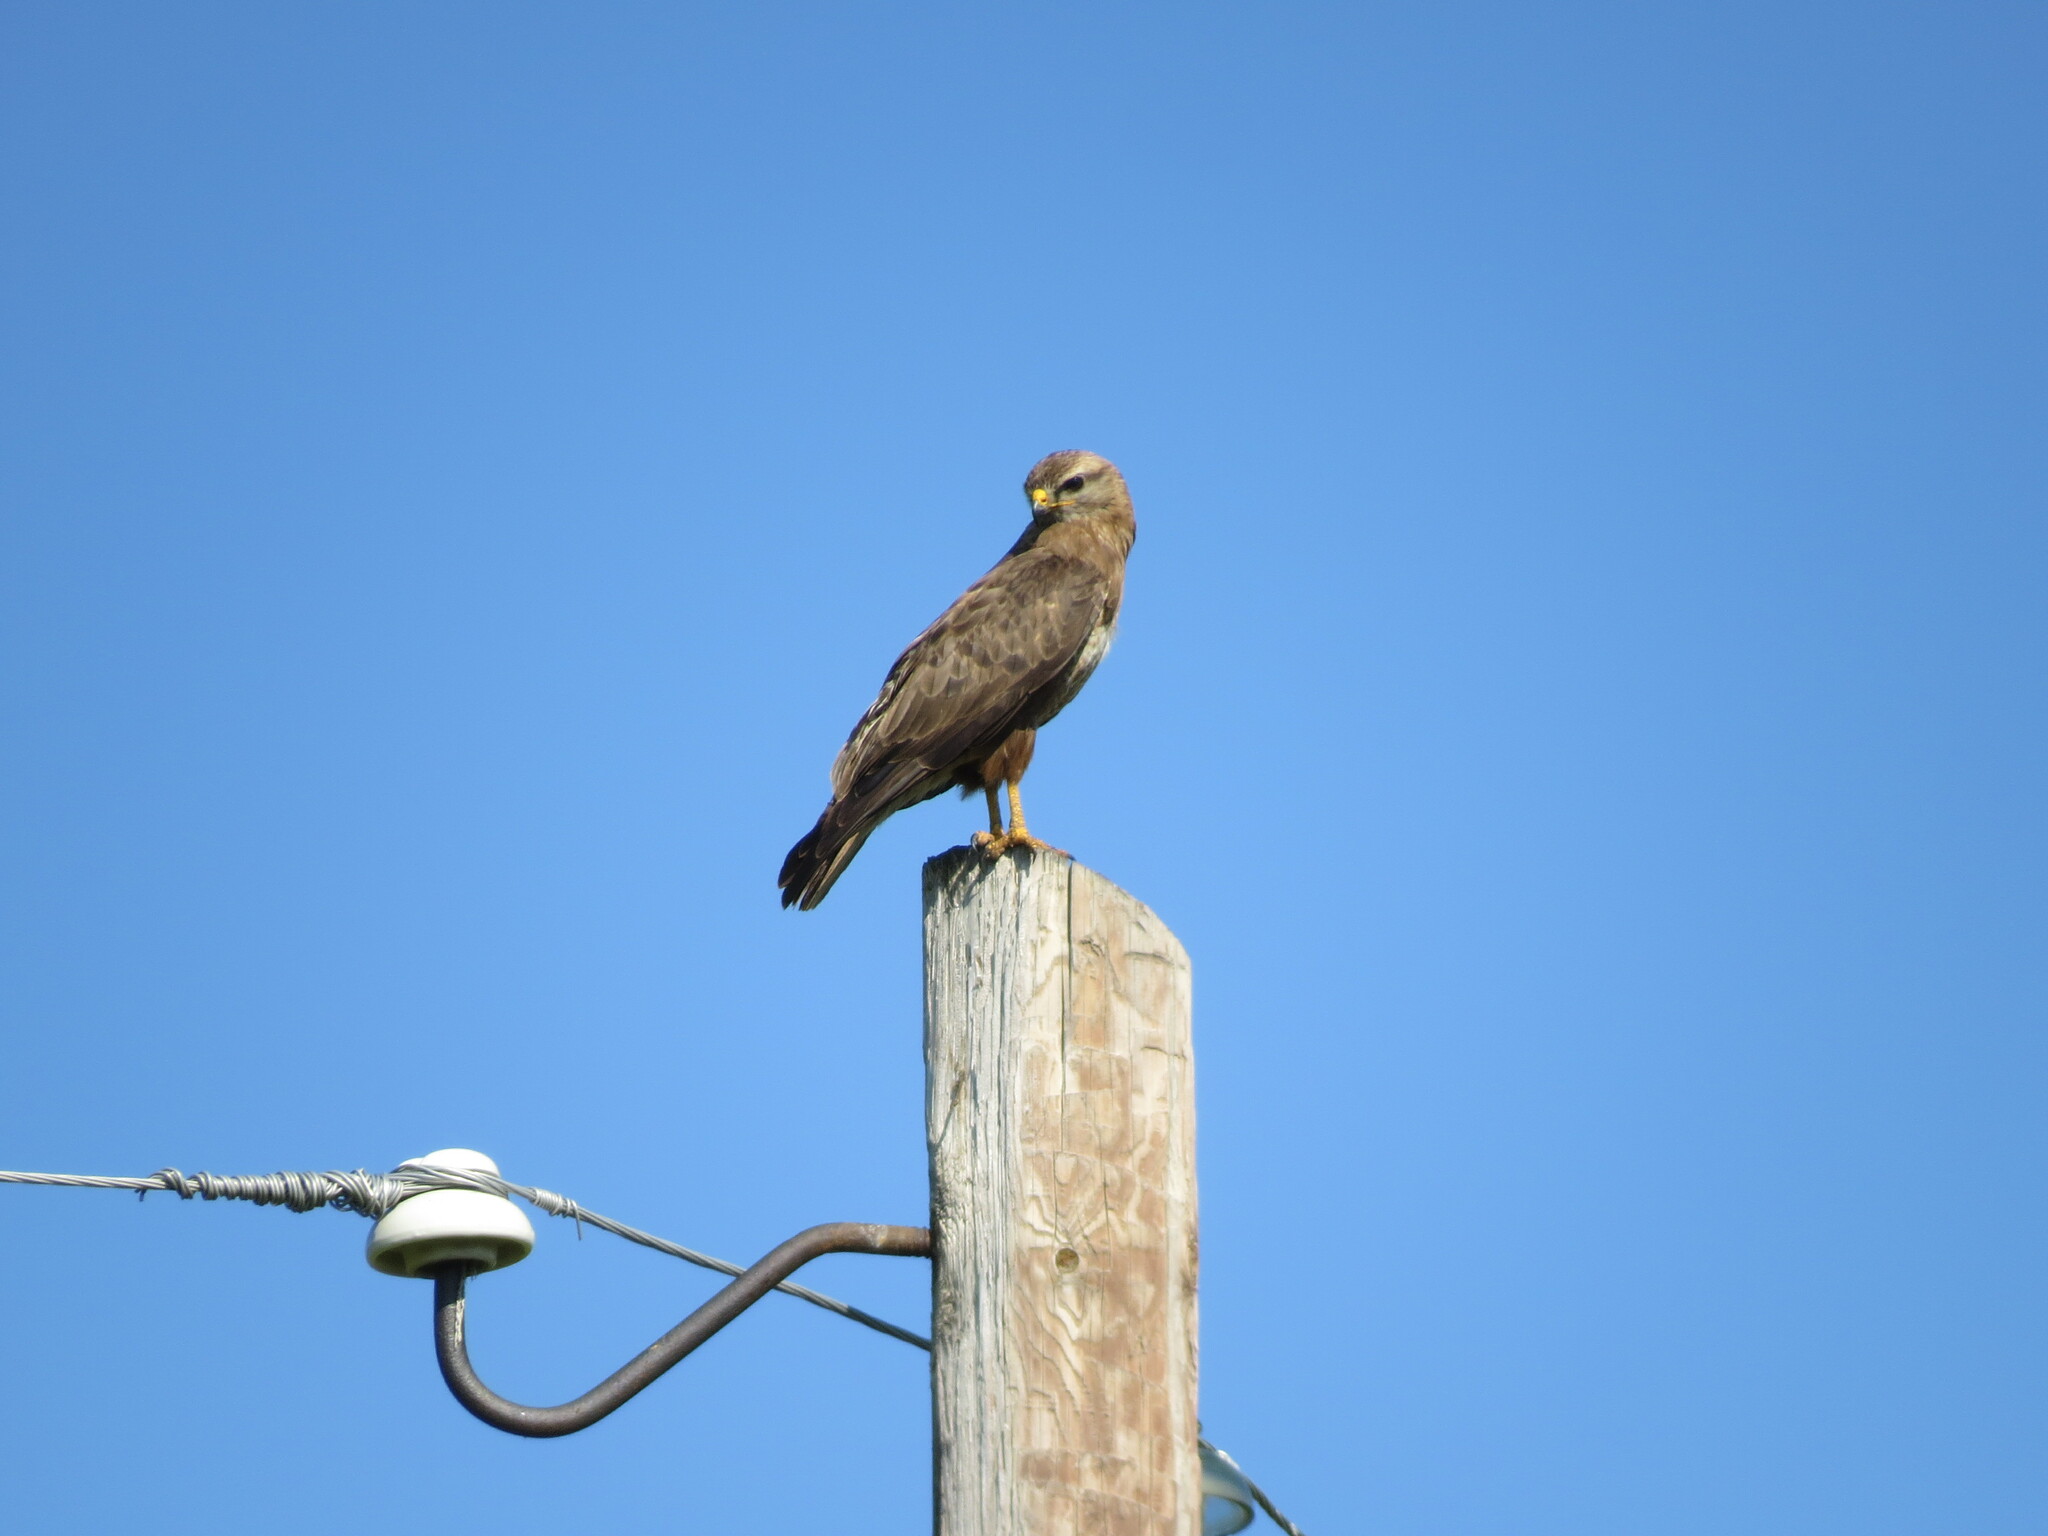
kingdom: Animalia
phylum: Chordata
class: Aves
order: Accipitriformes
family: Accipitridae
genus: Buteo
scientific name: Buteo buteo
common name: Common buzzard
